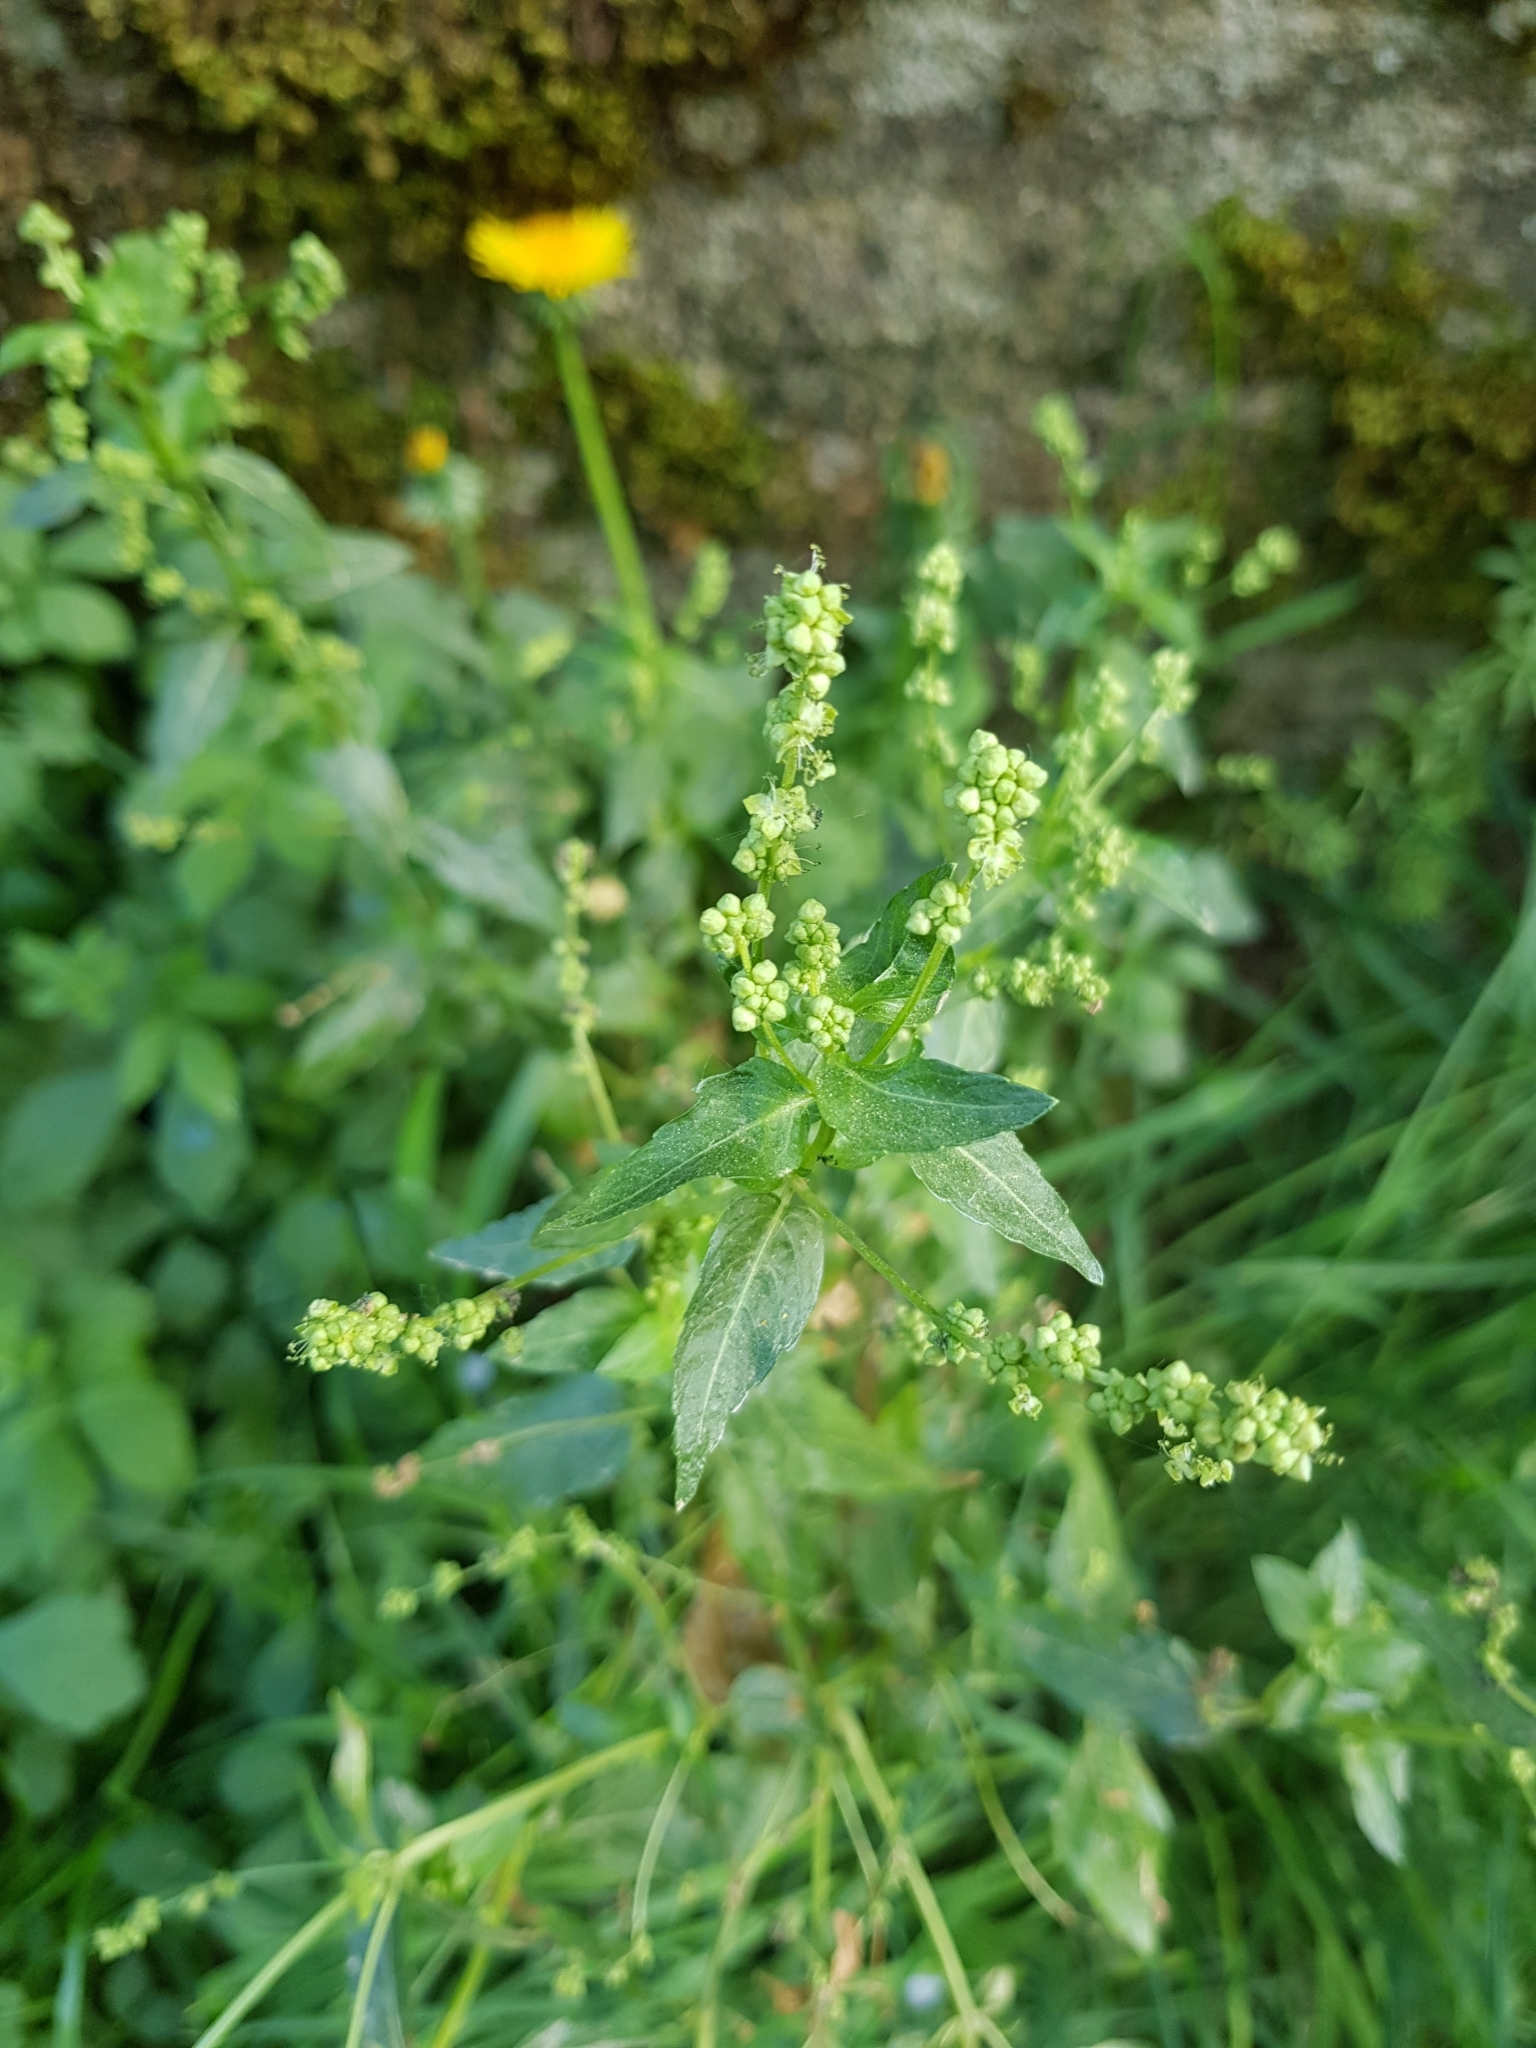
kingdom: Plantae
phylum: Tracheophyta
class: Magnoliopsida
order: Malpighiales
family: Euphorbiaceae
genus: Mercurialis
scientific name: Mercurialis annua
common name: Annual mercury
